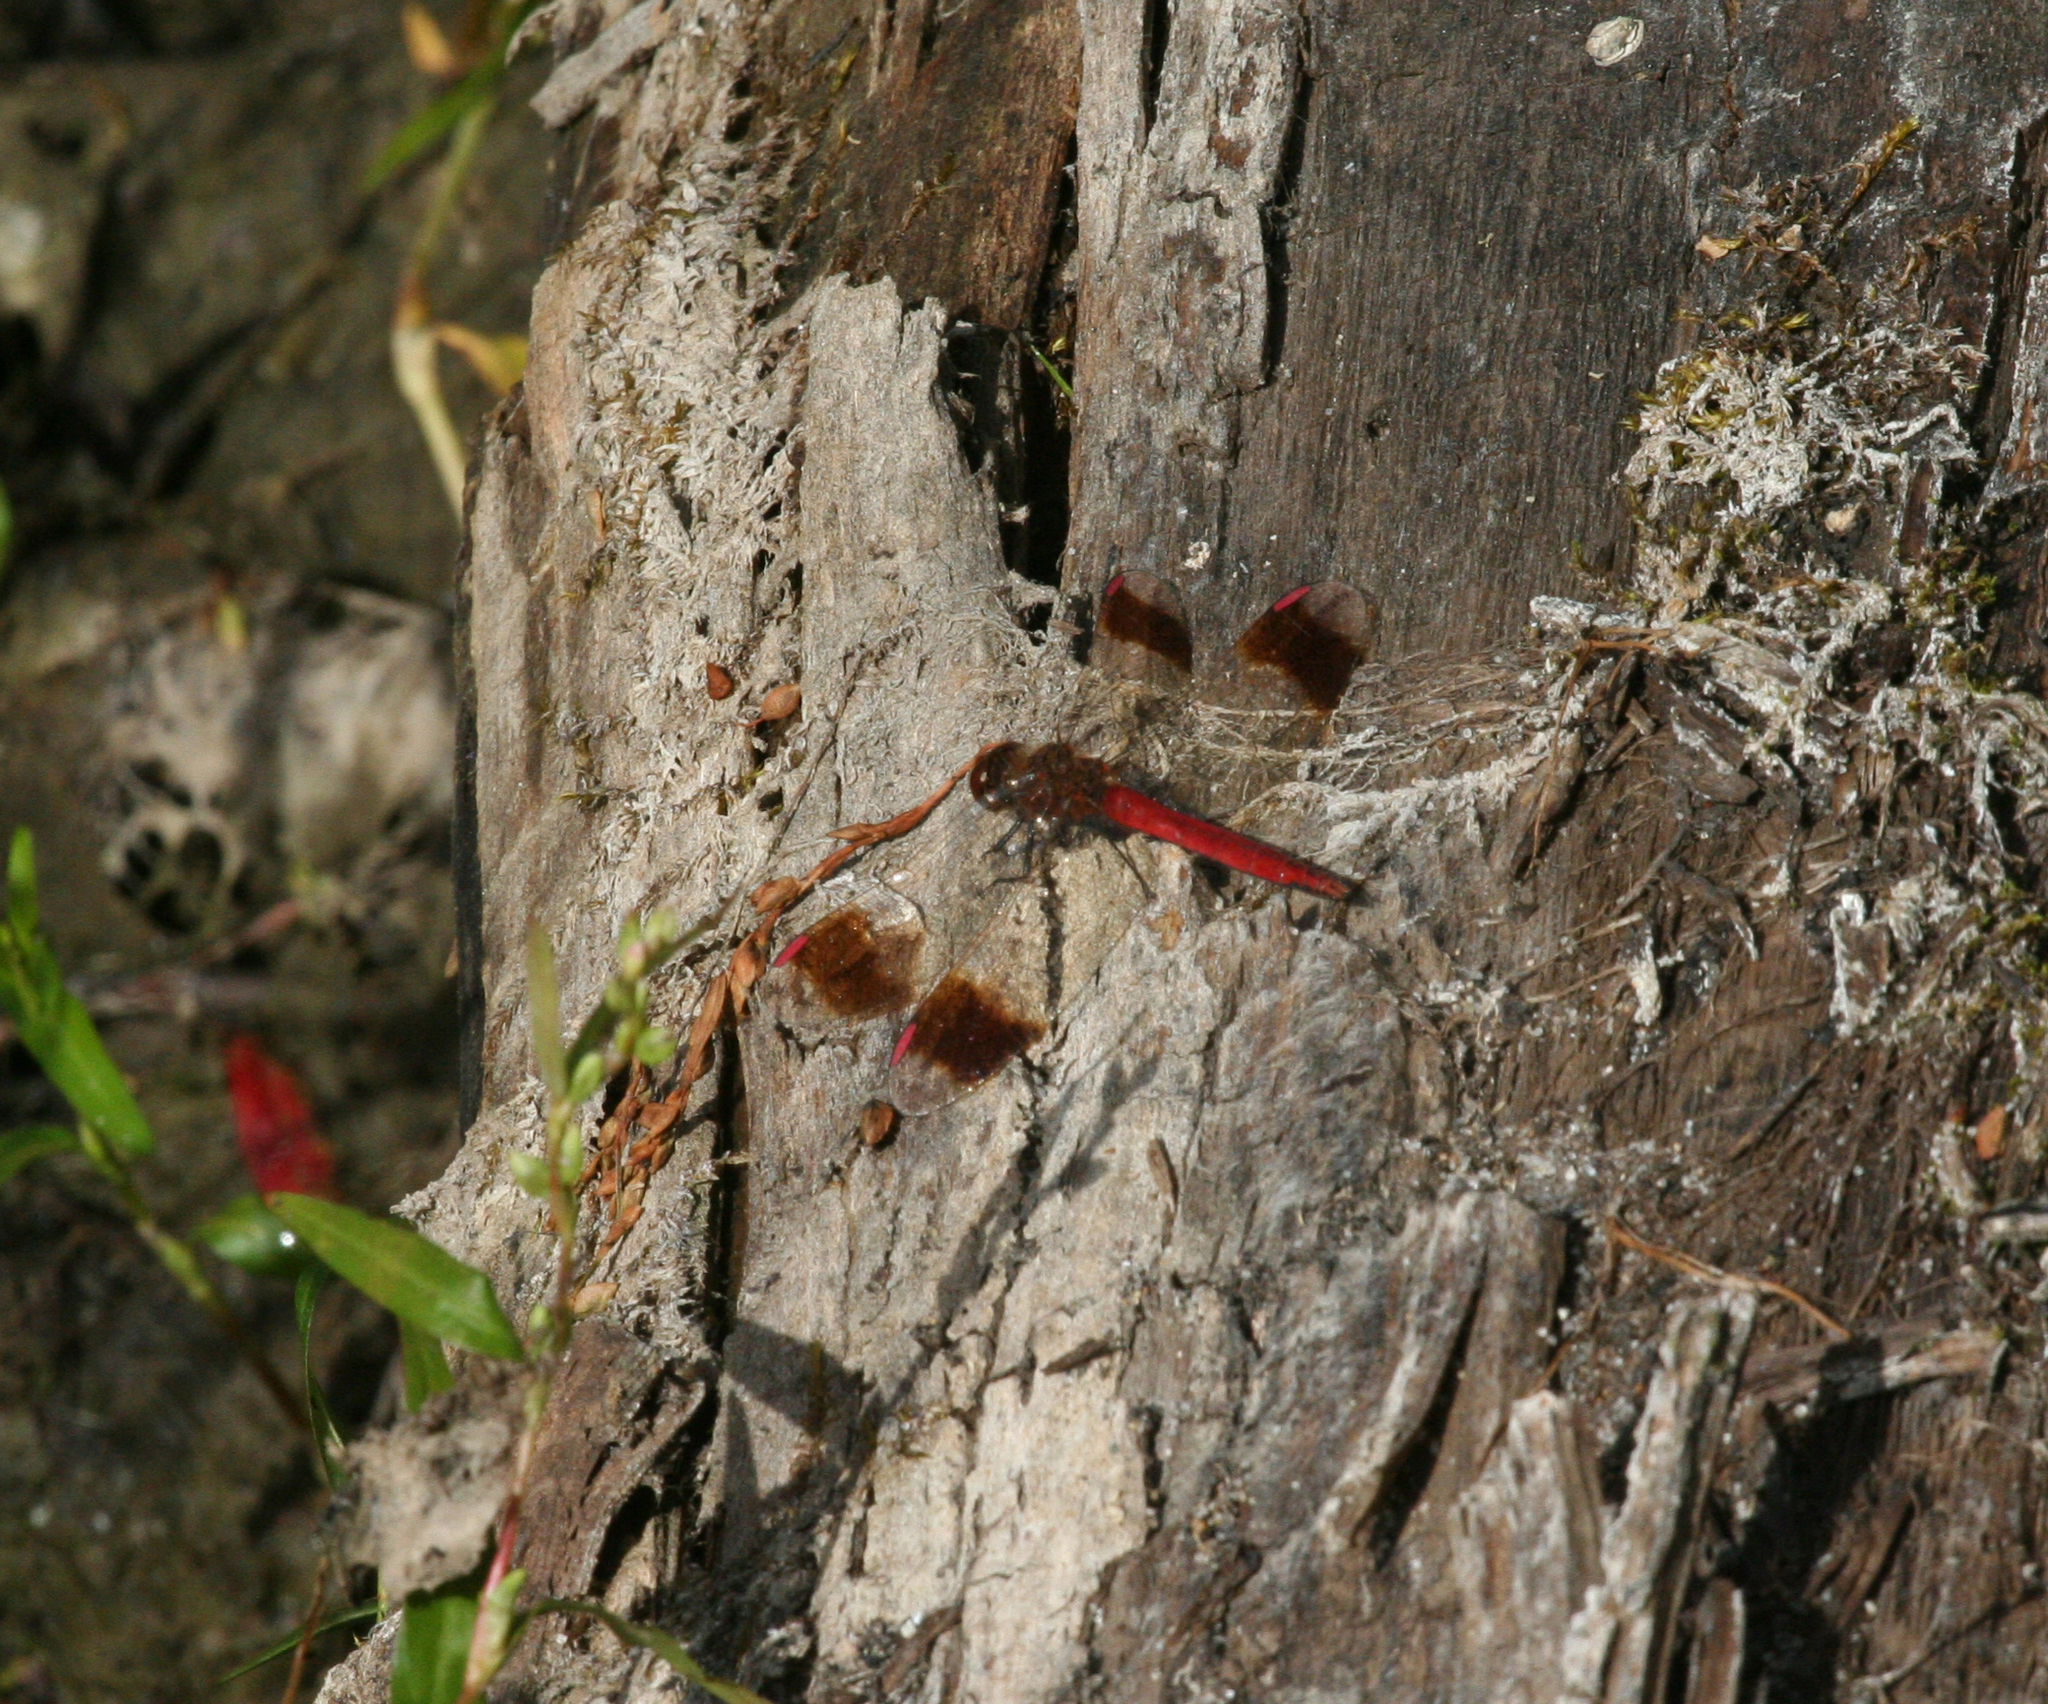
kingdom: Animalia
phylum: Arthropoda
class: Insecta
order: Odonata
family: Libellulidae
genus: Sympetrum
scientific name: Sympetrum pedemontanum
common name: Banded darter
